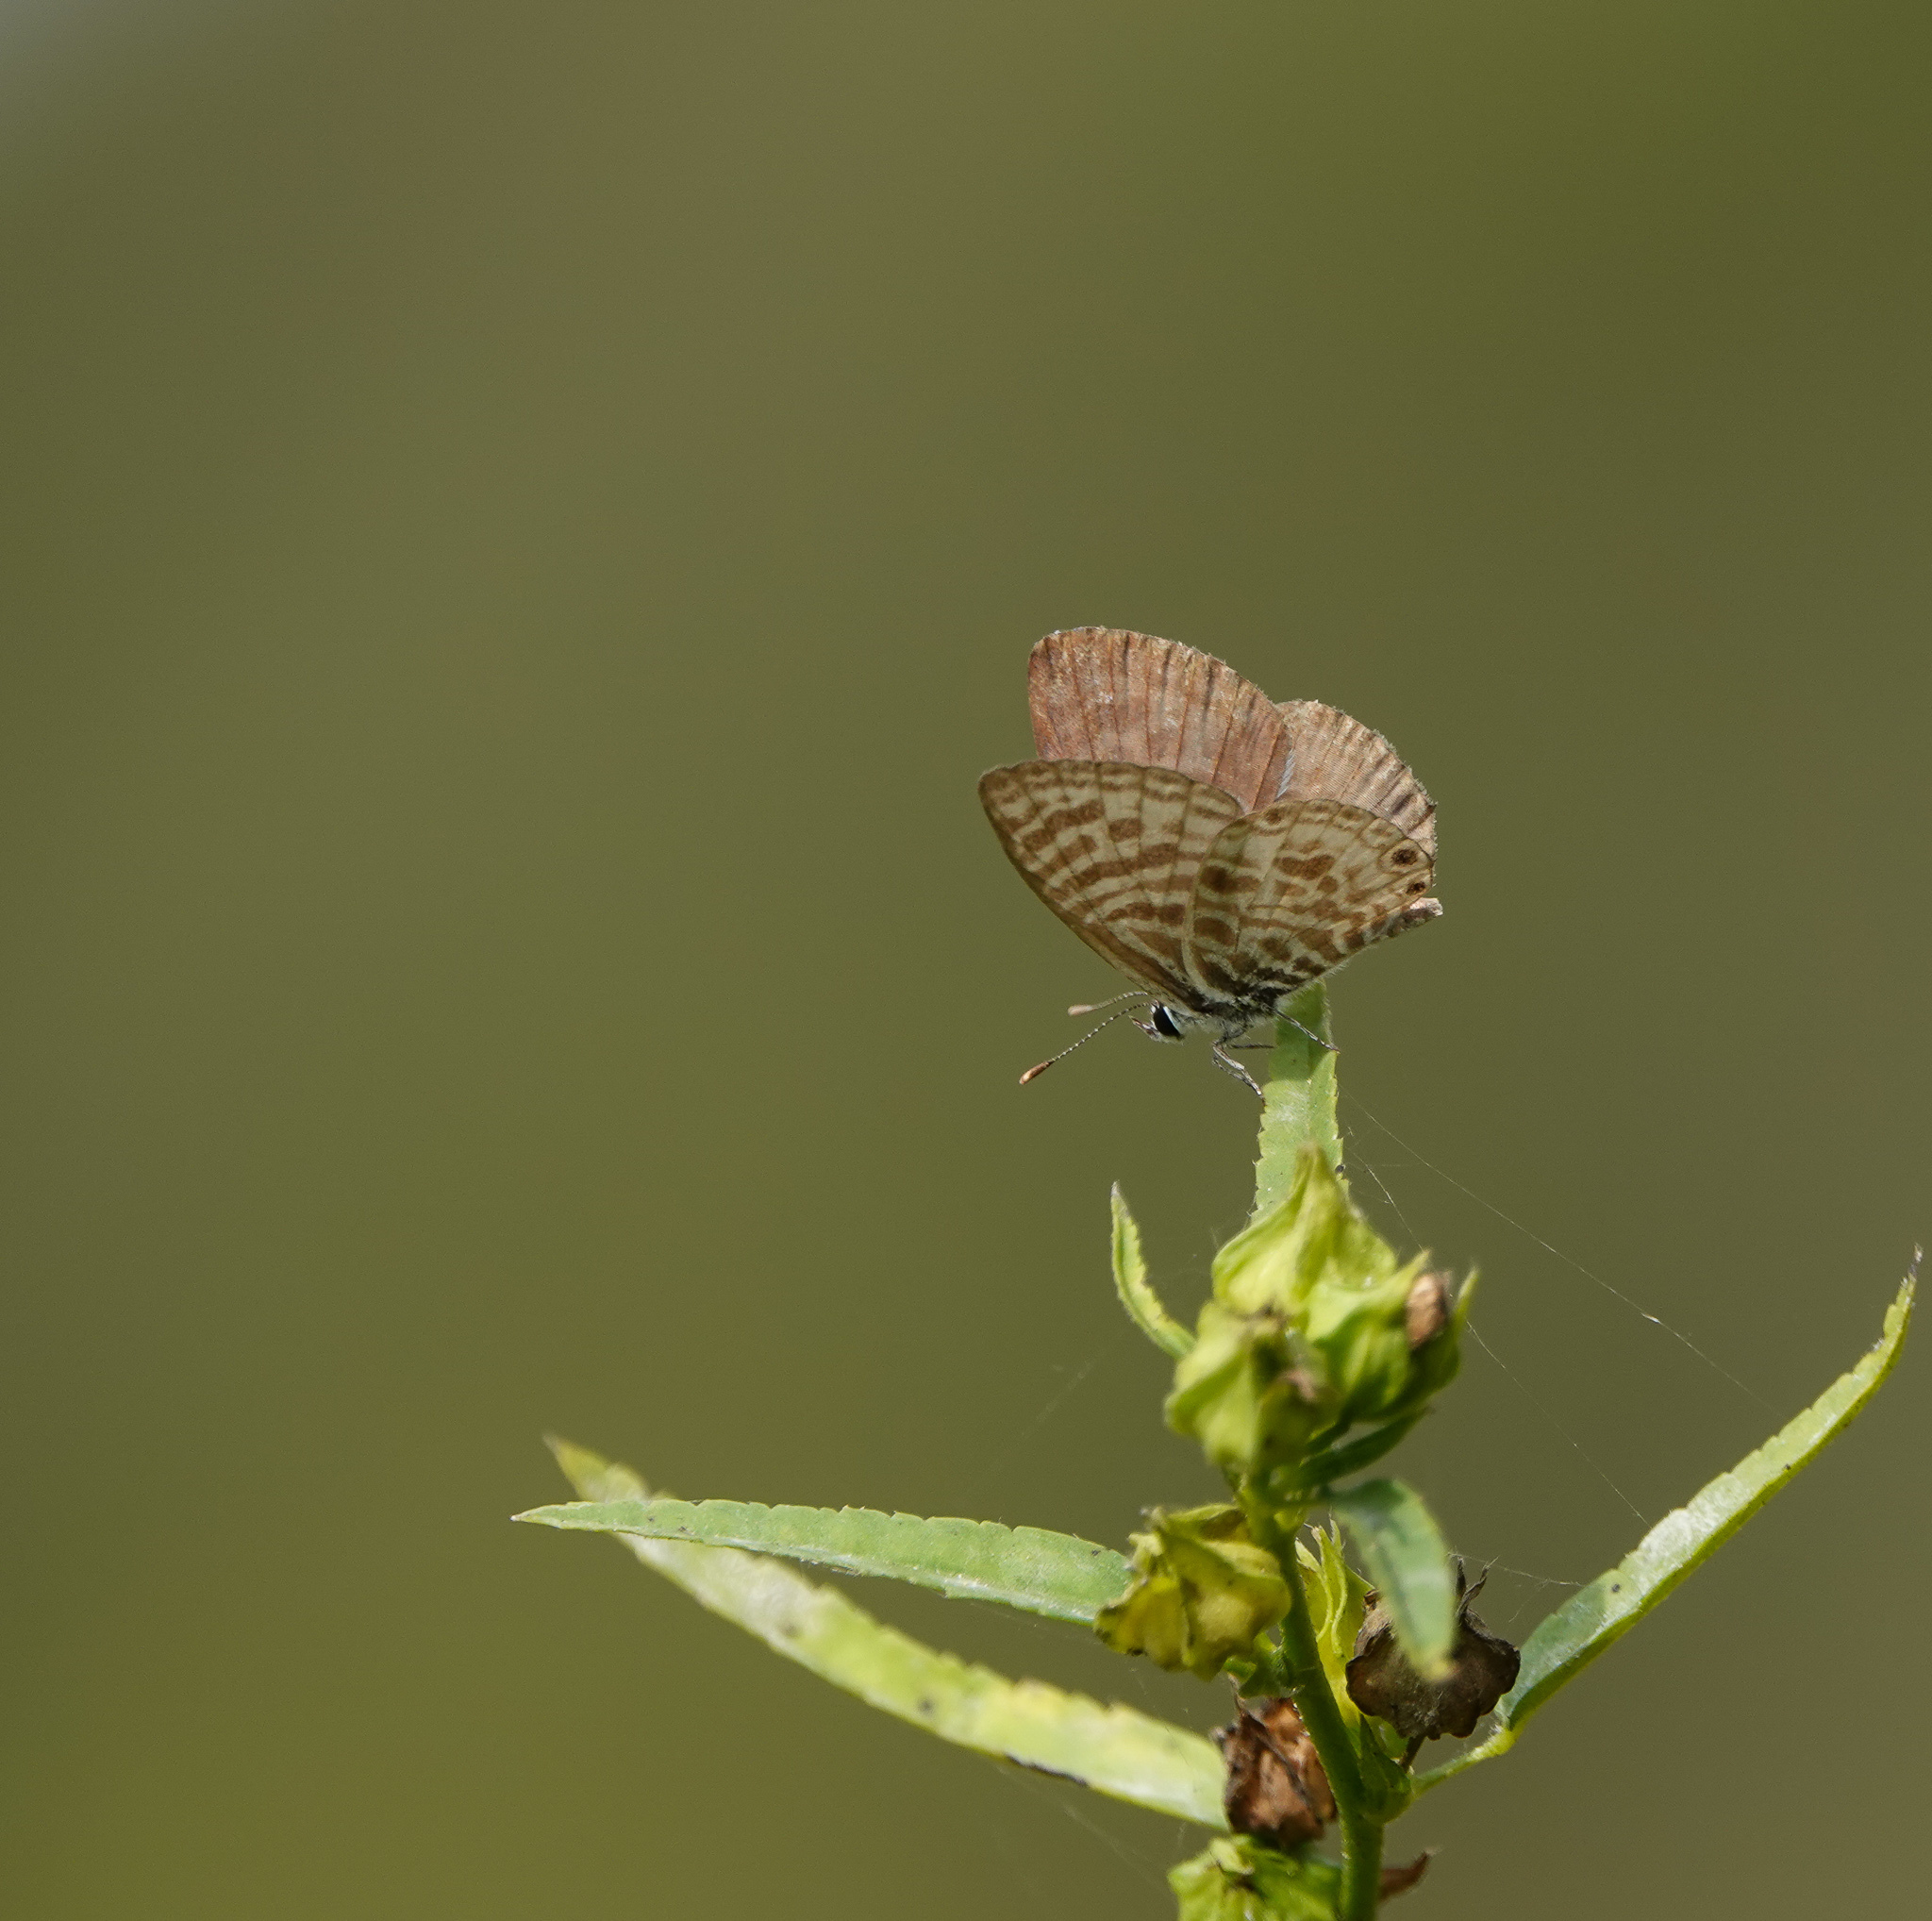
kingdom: Animalia
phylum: Arthropoda
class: Insecta
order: Lepidoptera
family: Lycaenidae
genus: Leptotes
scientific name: Leptotes plinius
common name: Zebra blue
